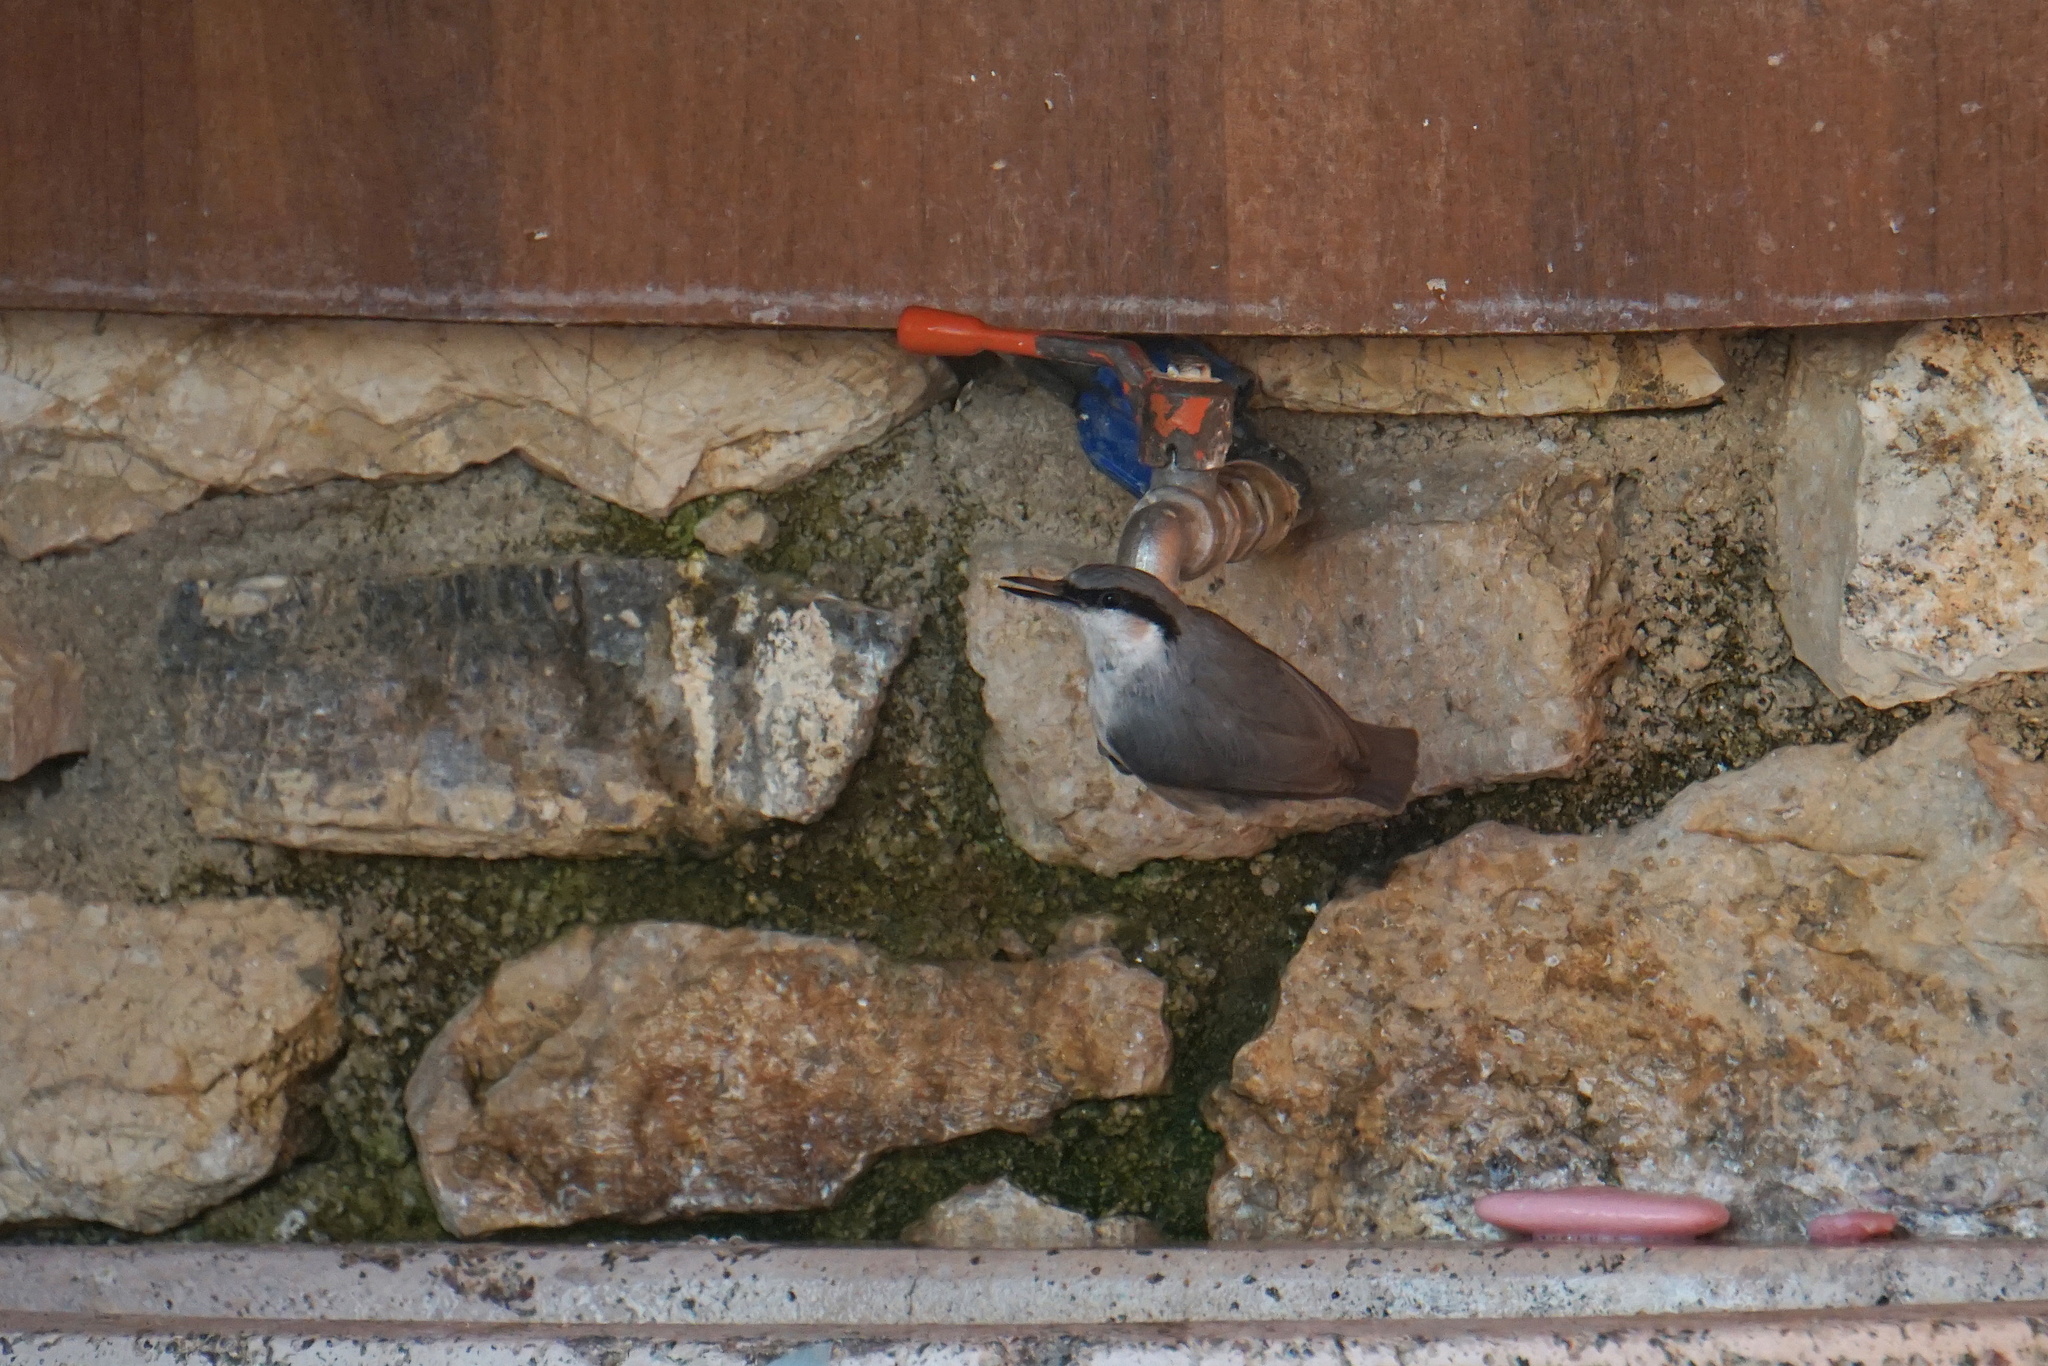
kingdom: Animalia
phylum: Chordata
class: Aves
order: Passeriformes
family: Sittidae
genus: Sitta
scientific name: Sitta europaea
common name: Eurasian nuthatch
